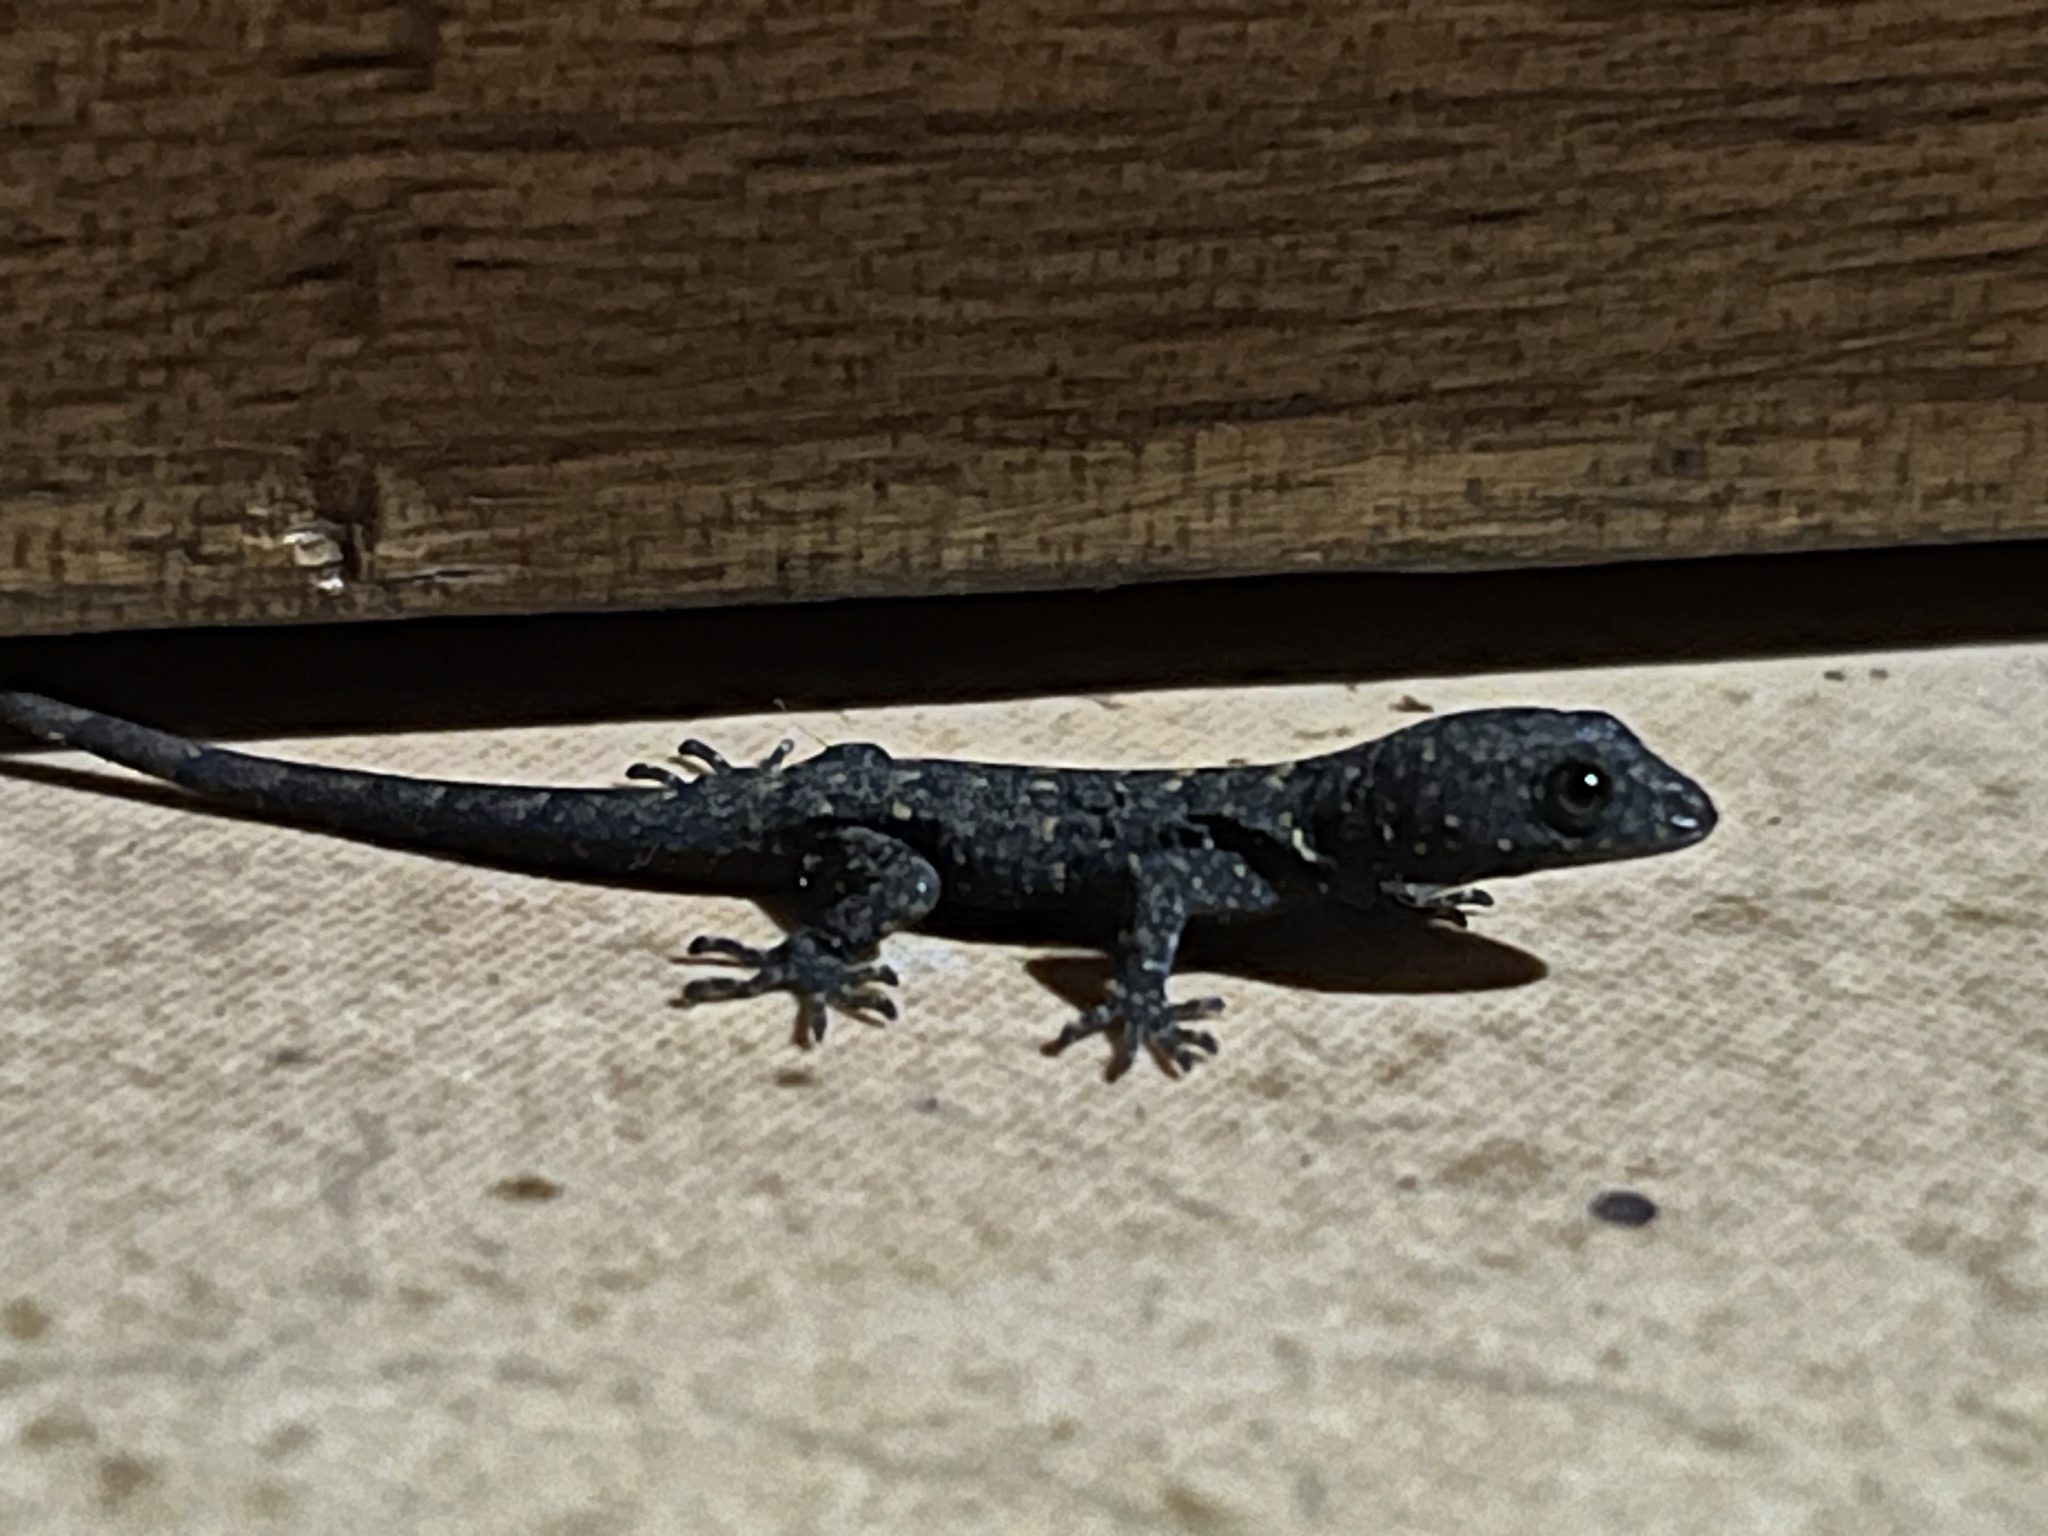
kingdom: Animalia
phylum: Chordata
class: Squamata
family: Sphaerodactylidae
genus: Gonatodes
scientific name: Gonatodes albogularis
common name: Yellow-headed gecko
